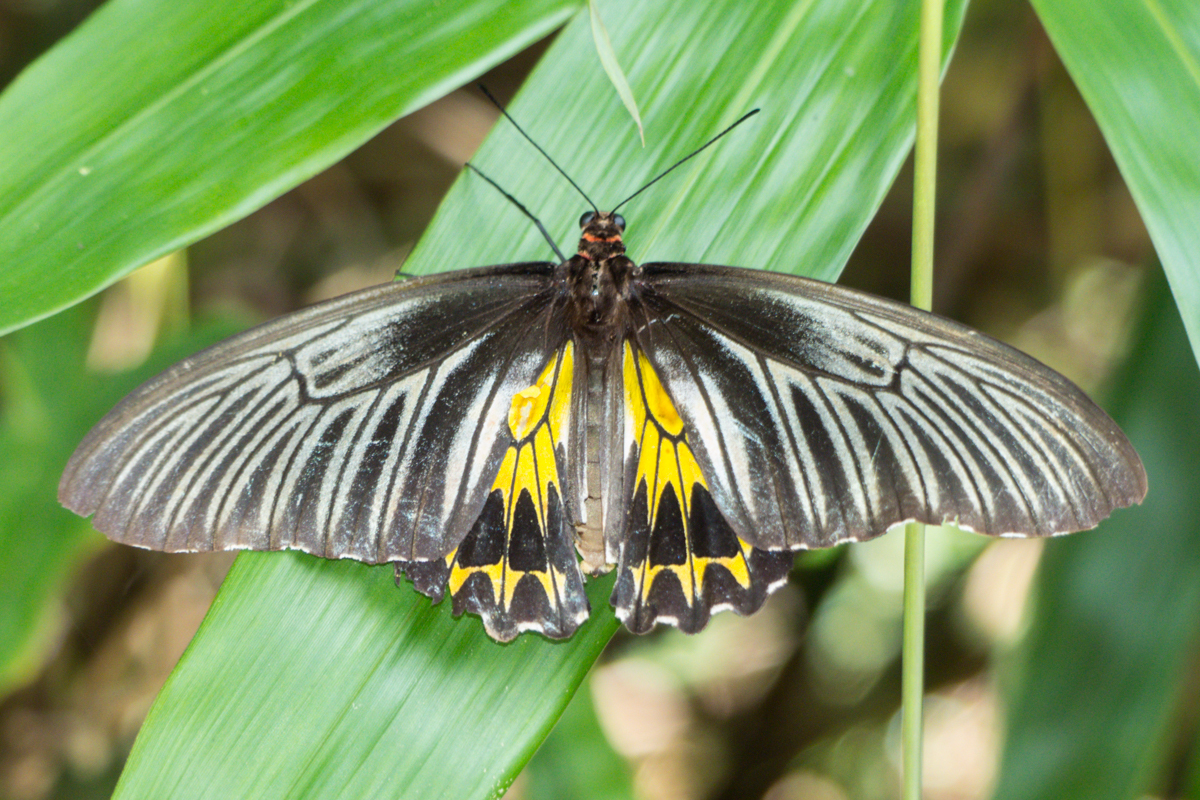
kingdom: Animalia
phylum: Arthropoda
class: Insecta
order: Lepidoptera
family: Papilionidae
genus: Troides
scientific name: Troides helena
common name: Common birdwing
